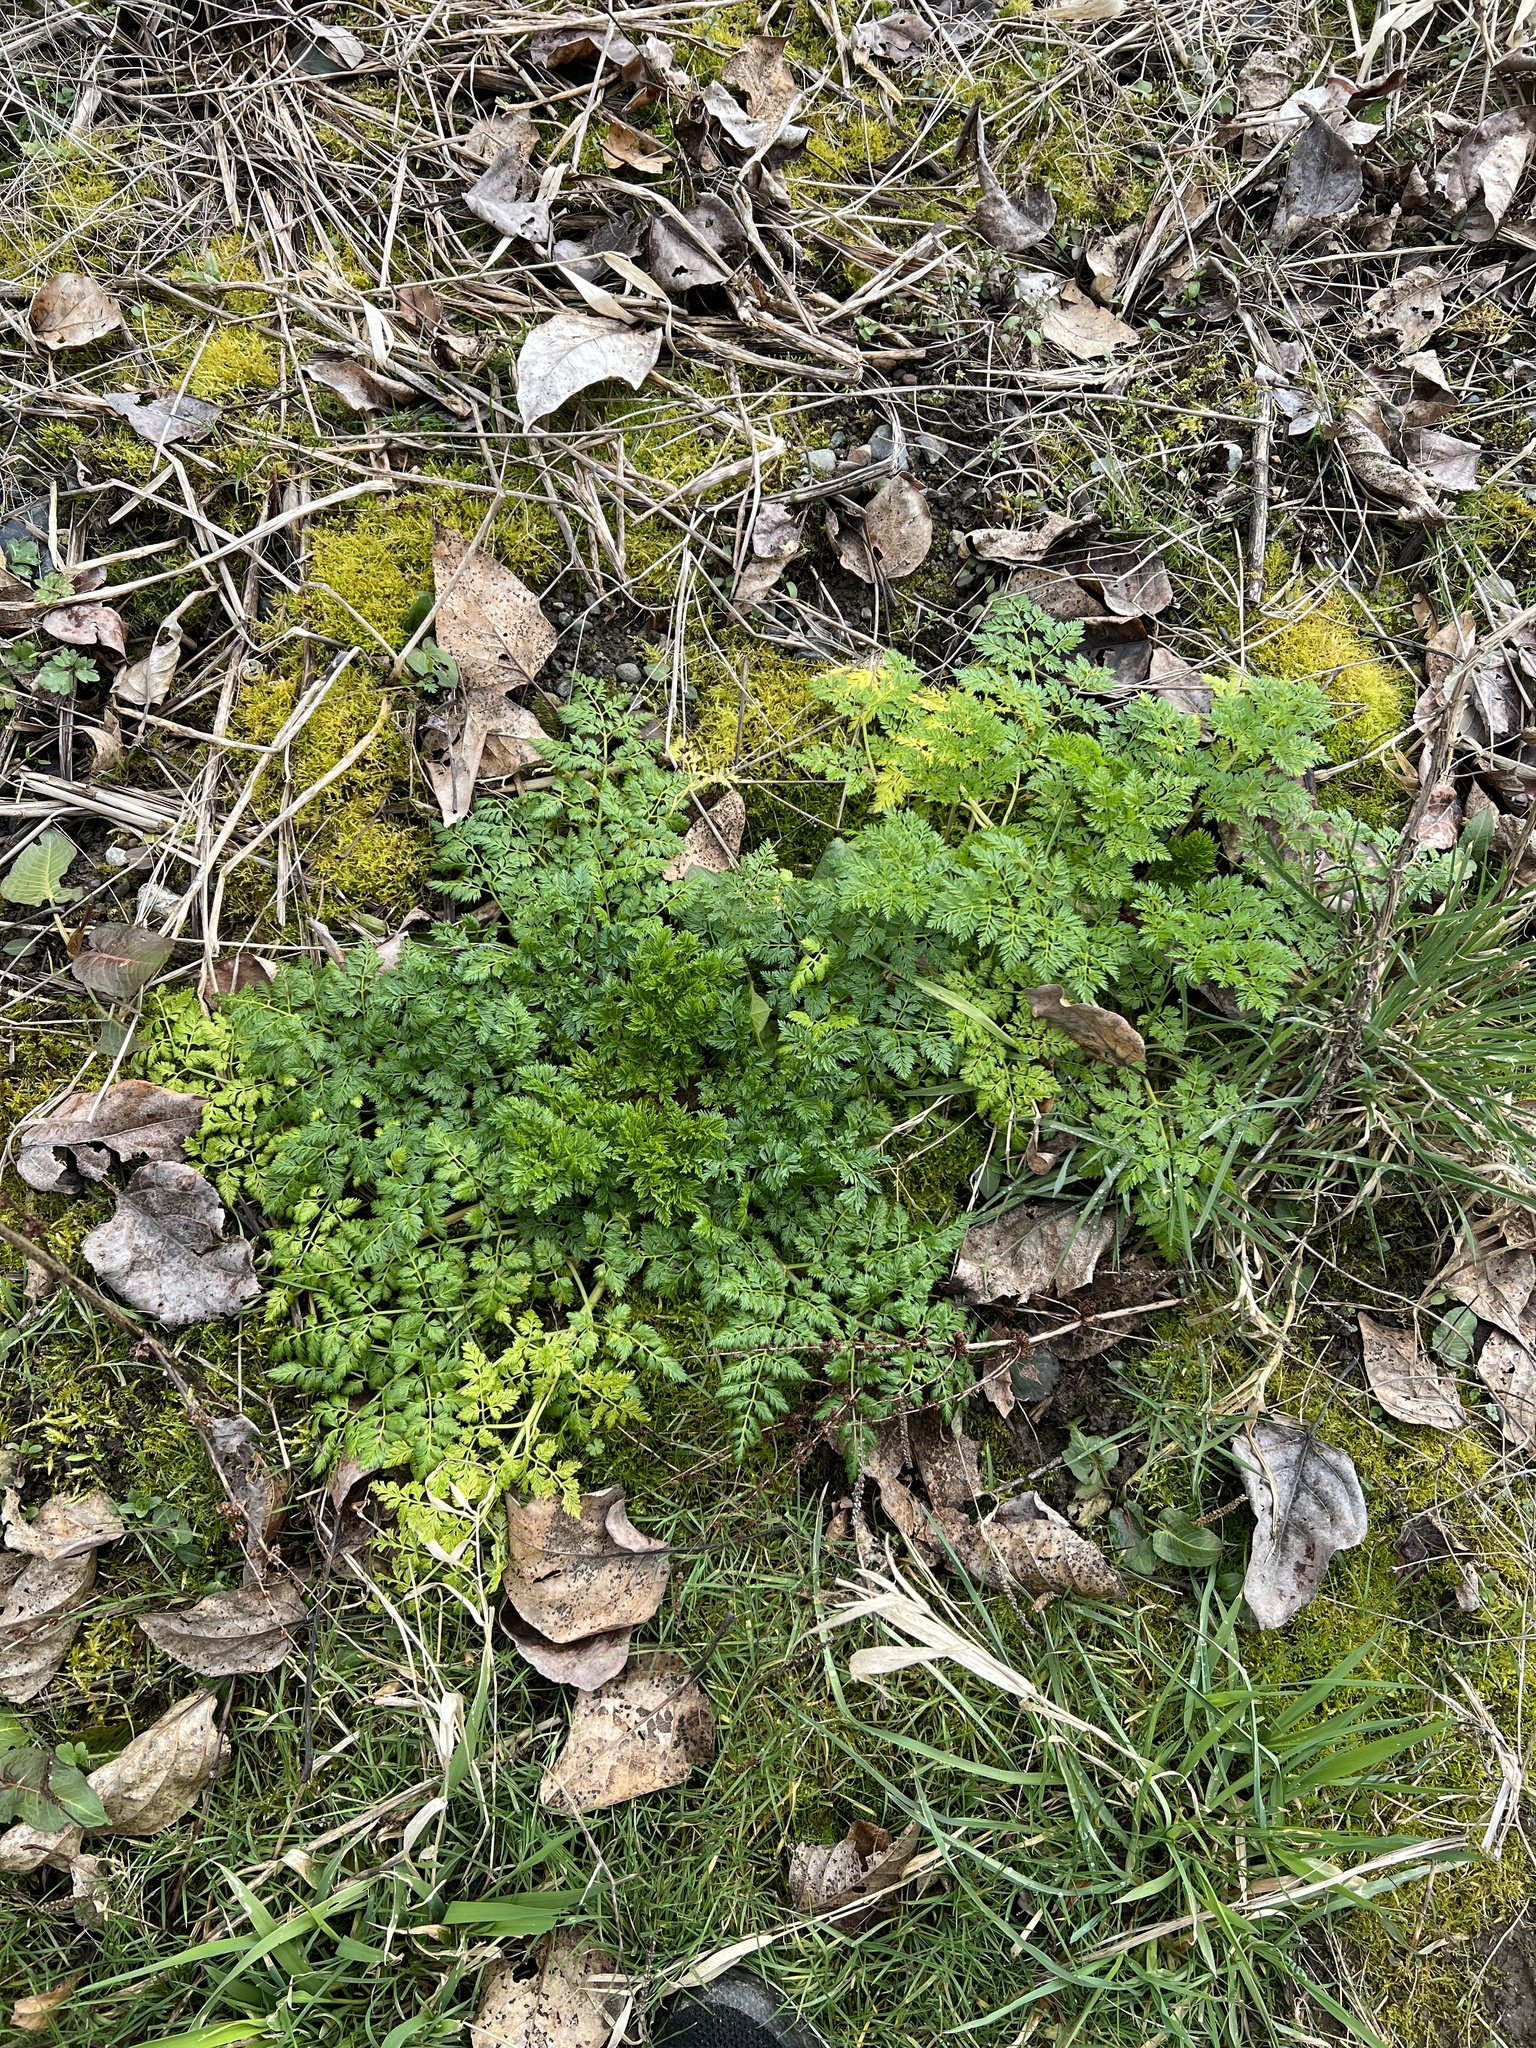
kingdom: Plantae
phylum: Tracheophyta
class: Magnoliopsida
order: Apiales
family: Apiaceae
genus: Conium
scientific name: Conium maculatum
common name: Hemlock
